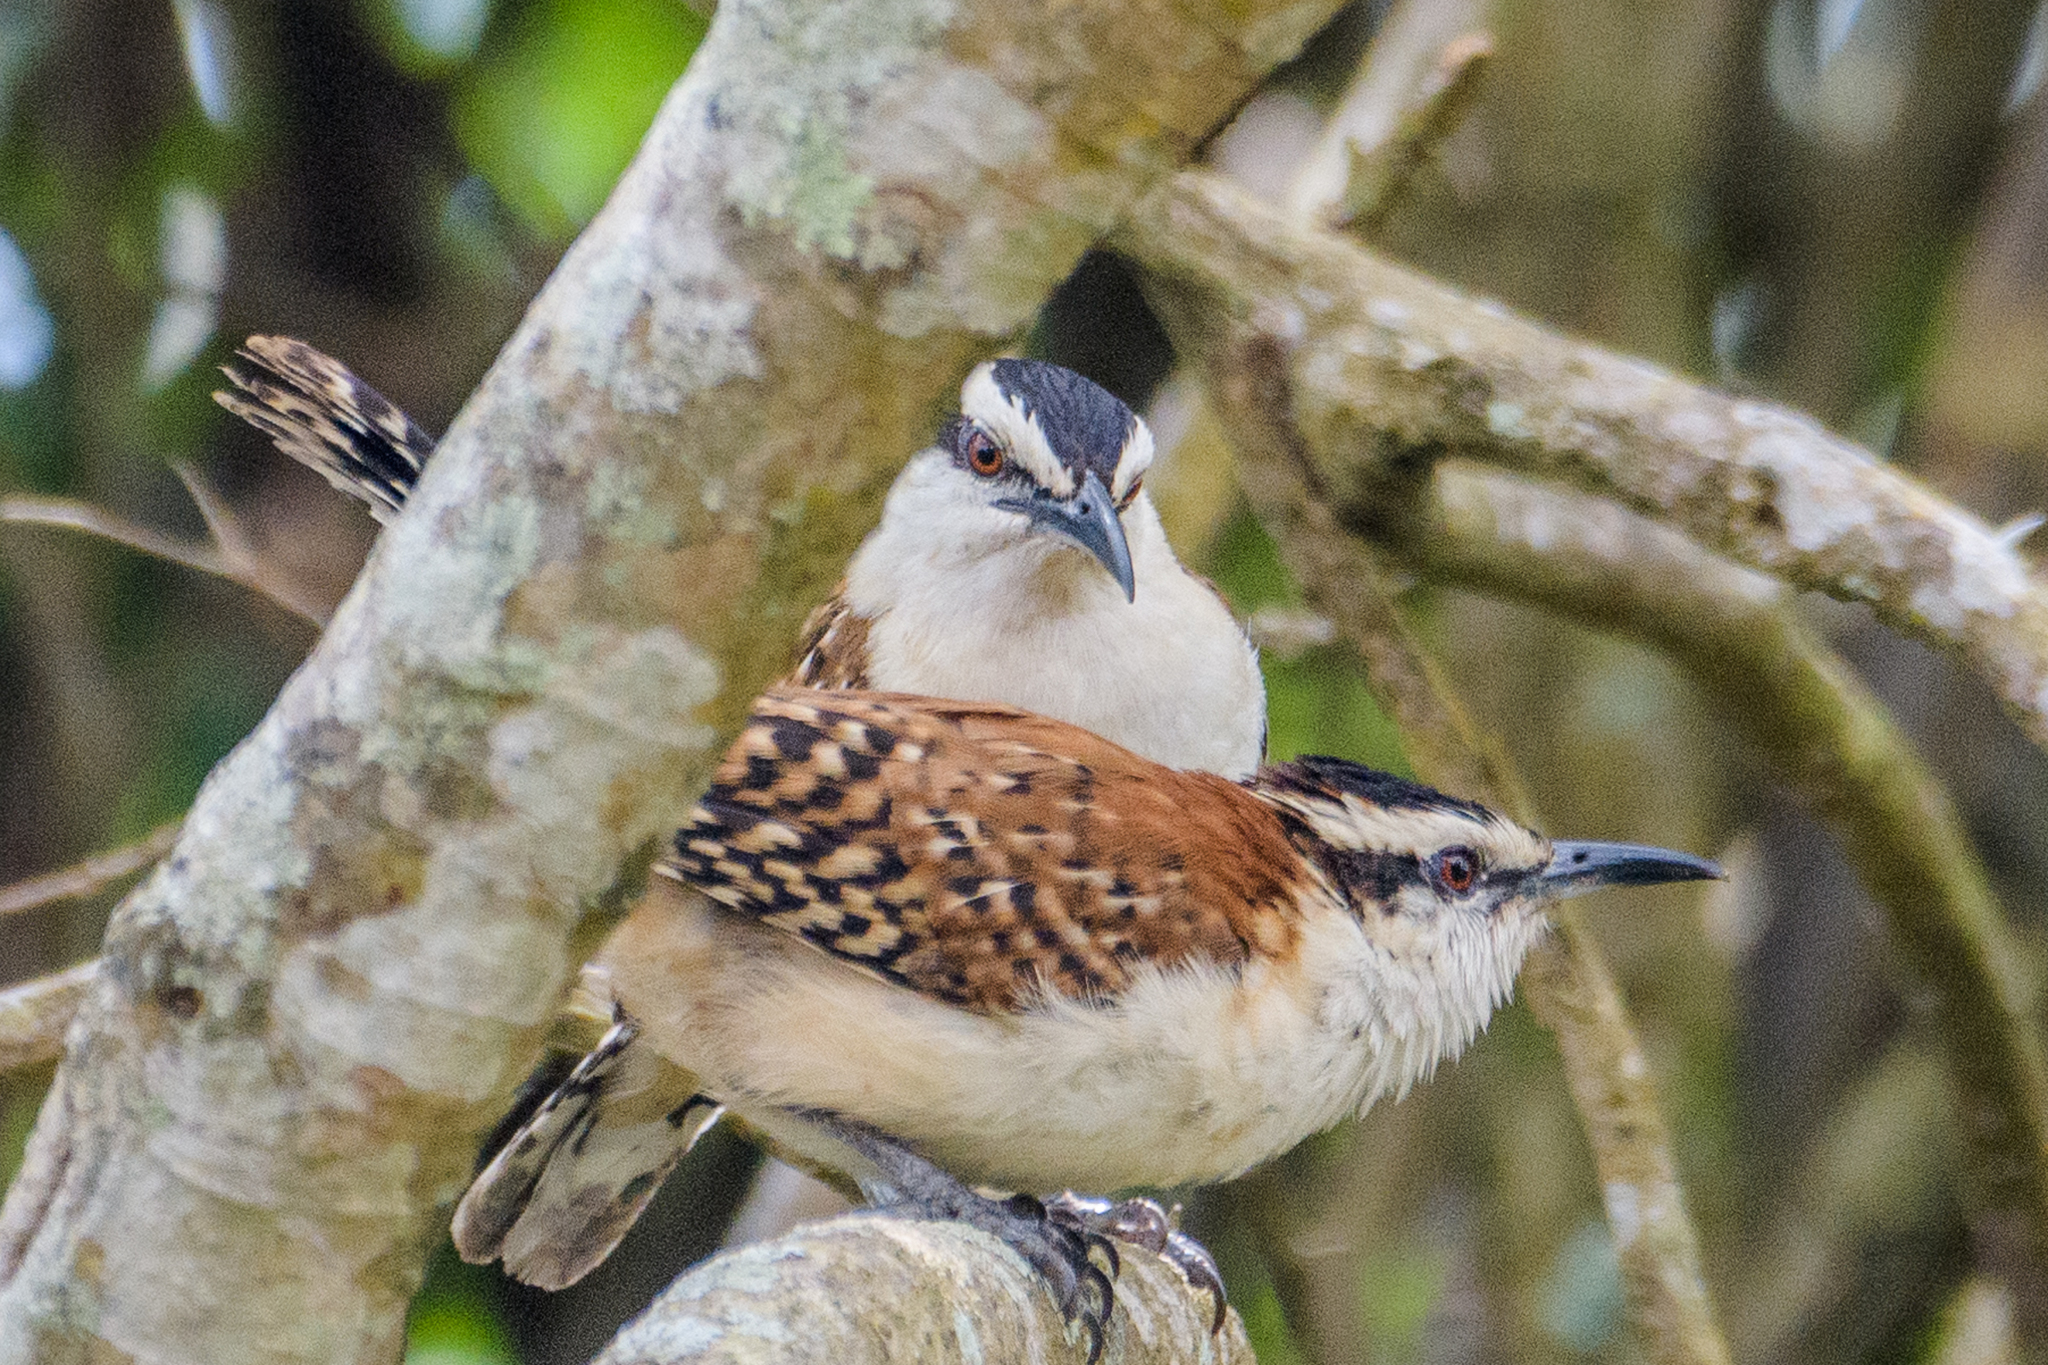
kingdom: Animalia
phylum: Chordata
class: Aves
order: Passeriformes
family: Troglodytidae
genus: Campylorhynchus
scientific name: Campylorhynchus rufinucha
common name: Rufous-naped wren
